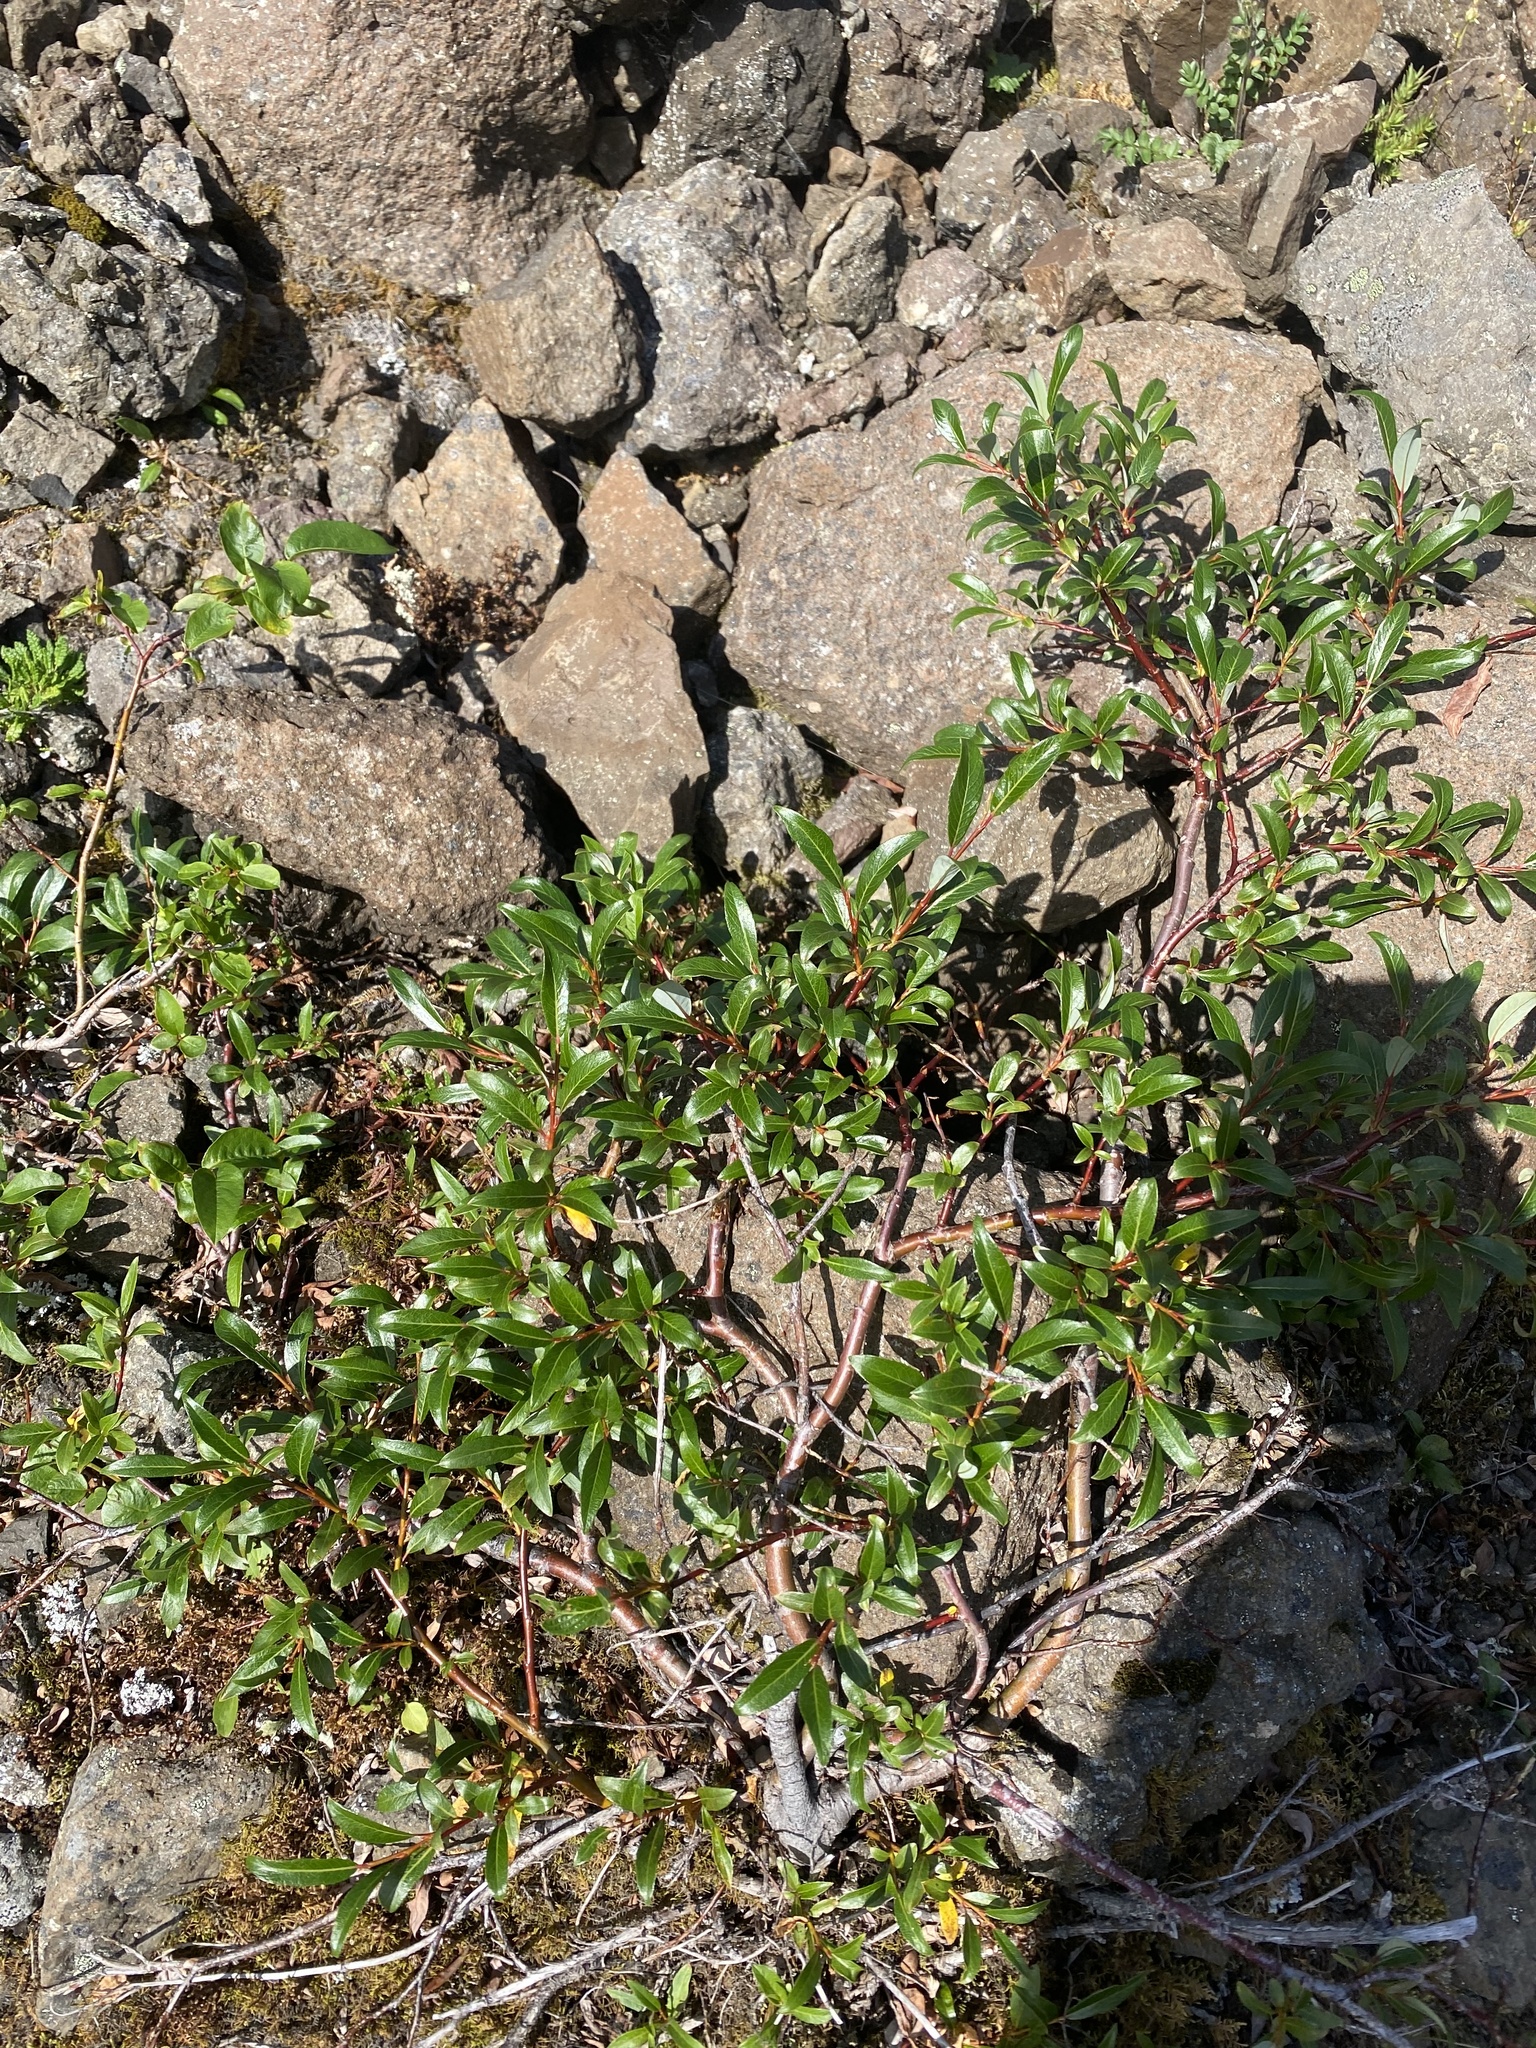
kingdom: Plantae
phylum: Tracheophyta
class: Magnoliopsida
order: Malpighiales
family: Salicaceae
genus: Salix
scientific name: Salix pulchra
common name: Diamond-leaved willow
